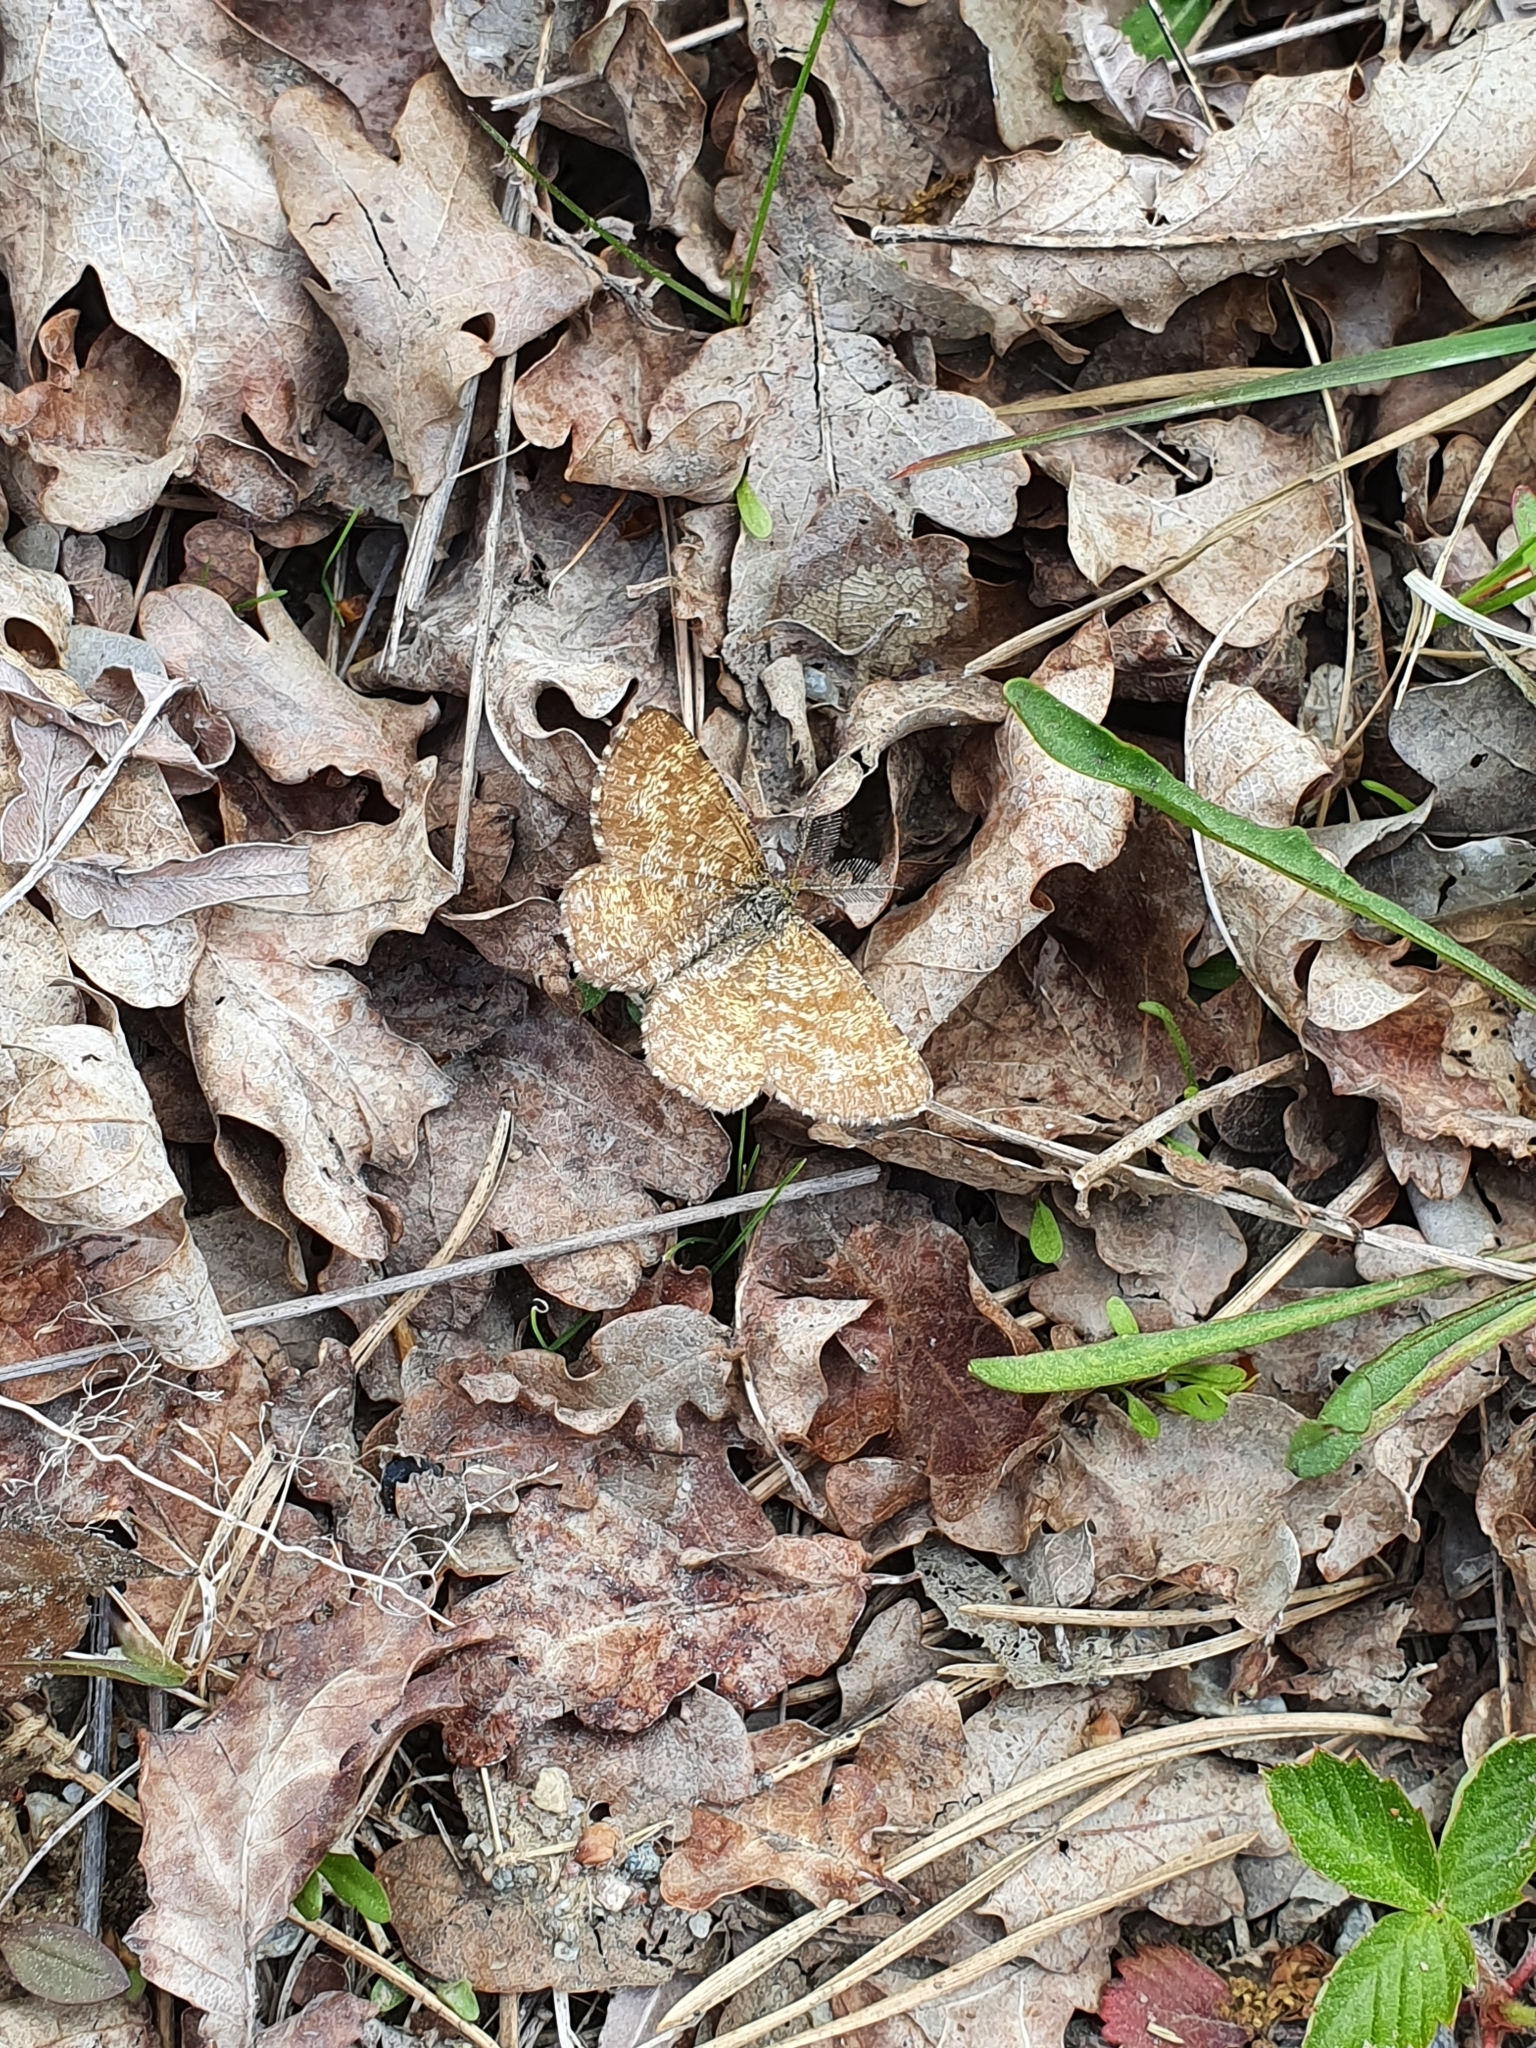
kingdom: Animalia
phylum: Arthropoda
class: Insecta
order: Lepidoptera
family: Geometridae
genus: Ematurga
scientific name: Ematurga atomaria
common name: Common heath
